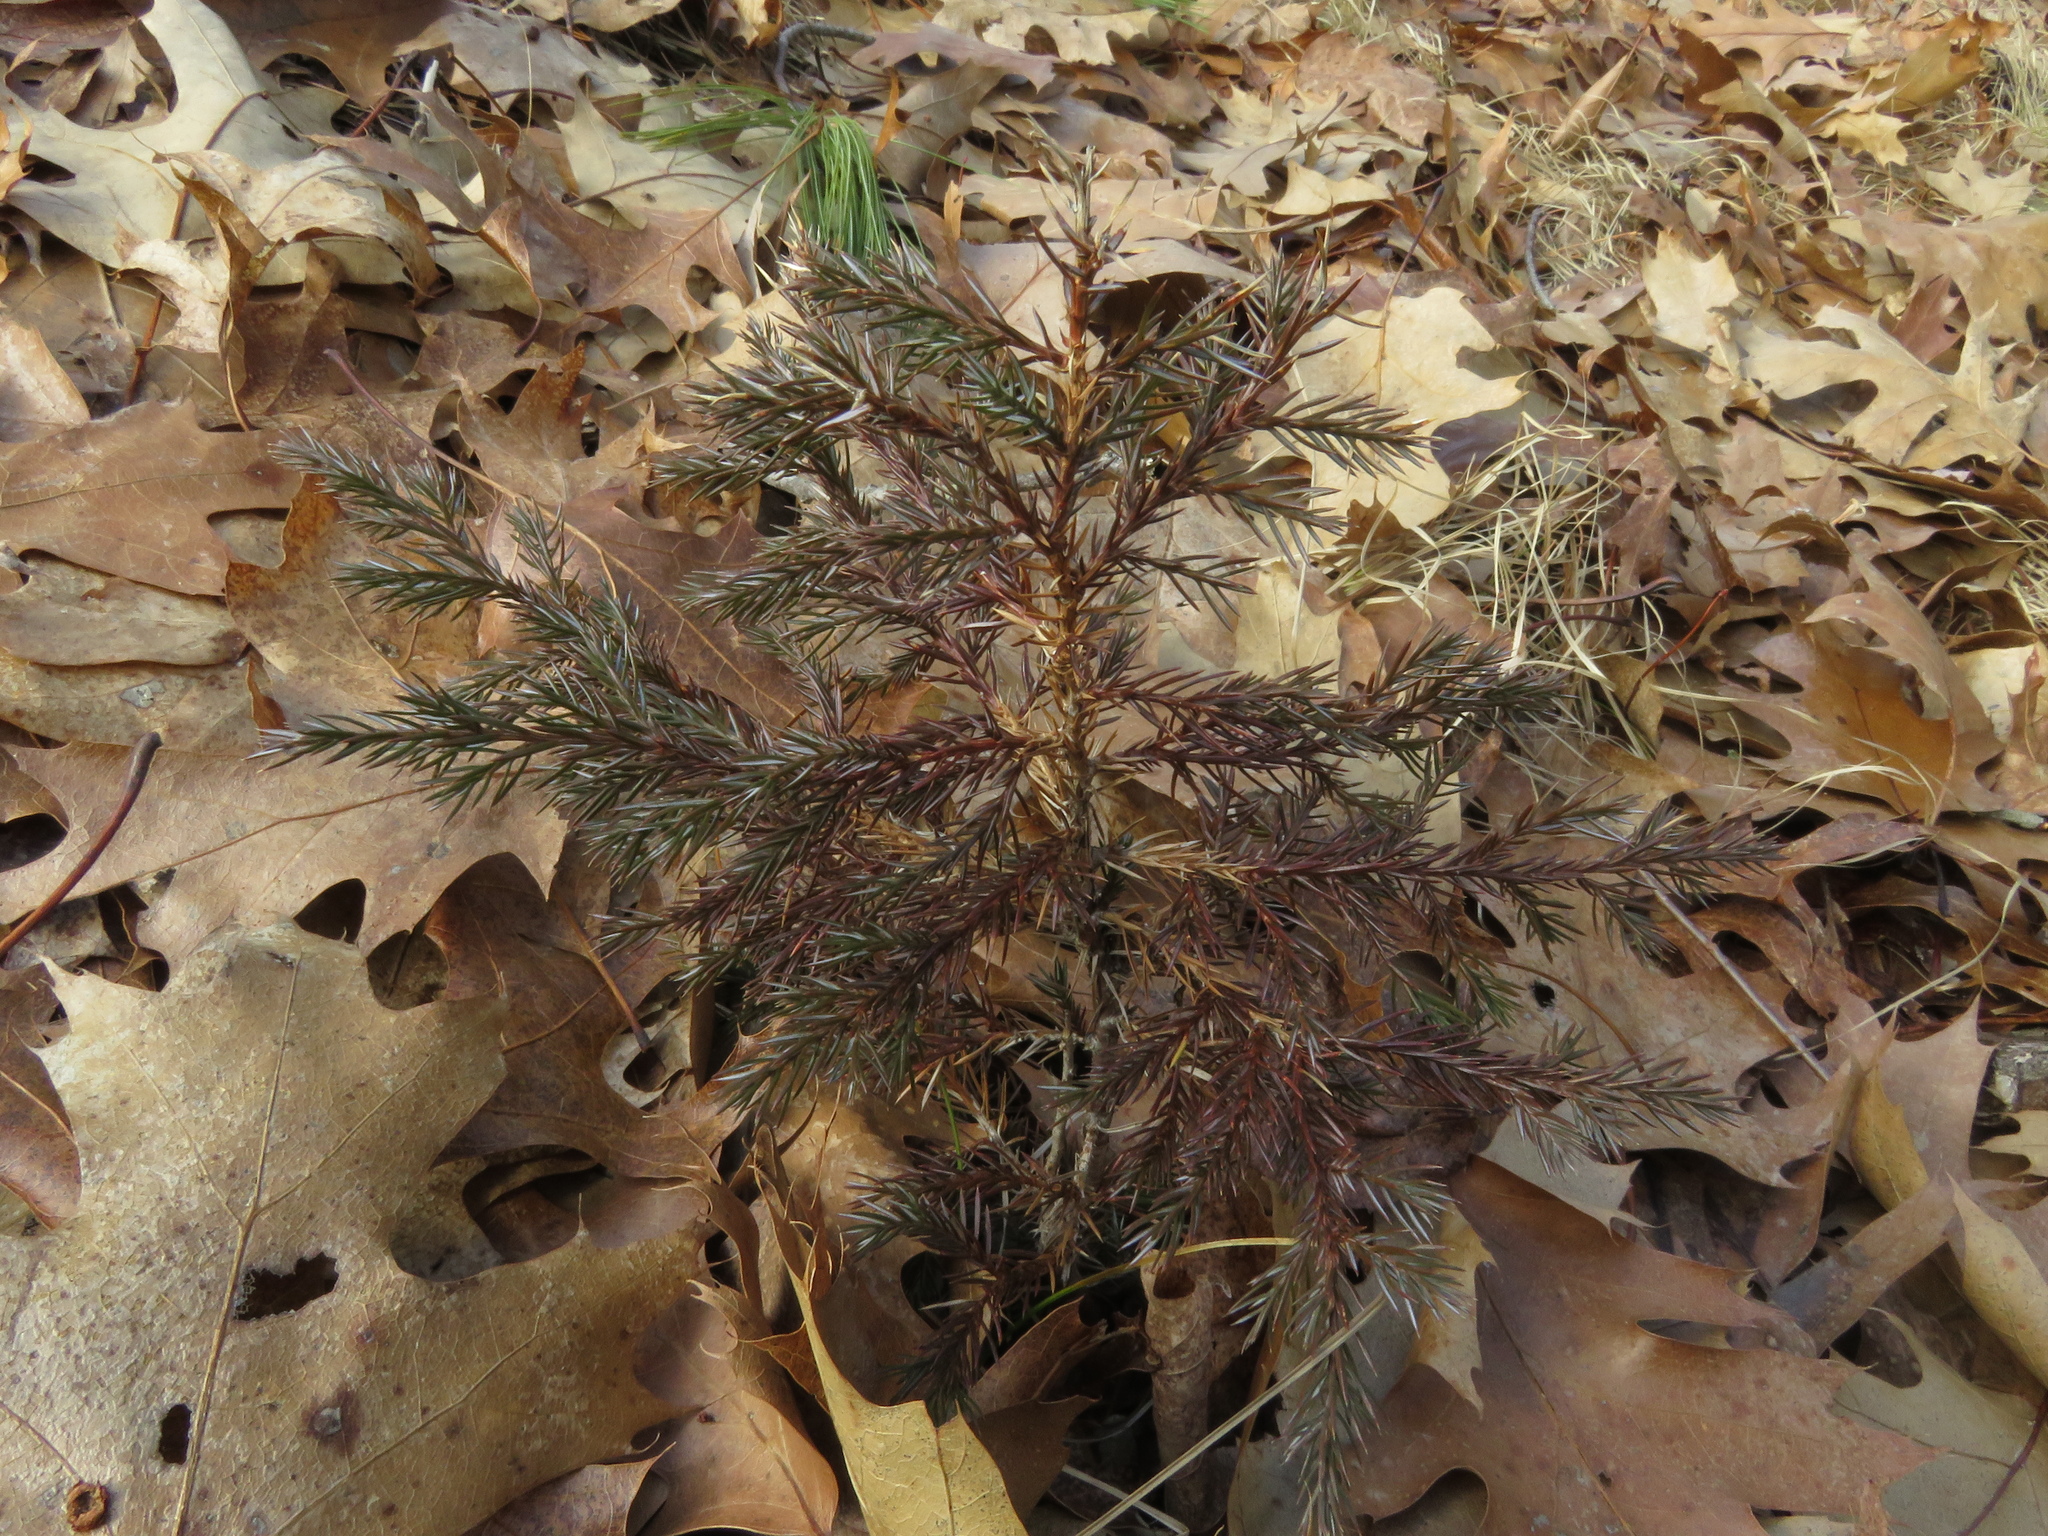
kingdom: Plantae
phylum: Tracheophyta
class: Pinopsida
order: Pinales
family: Cupressaceae
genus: Juniperus
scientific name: Juniperus virginiana
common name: Red juniper
